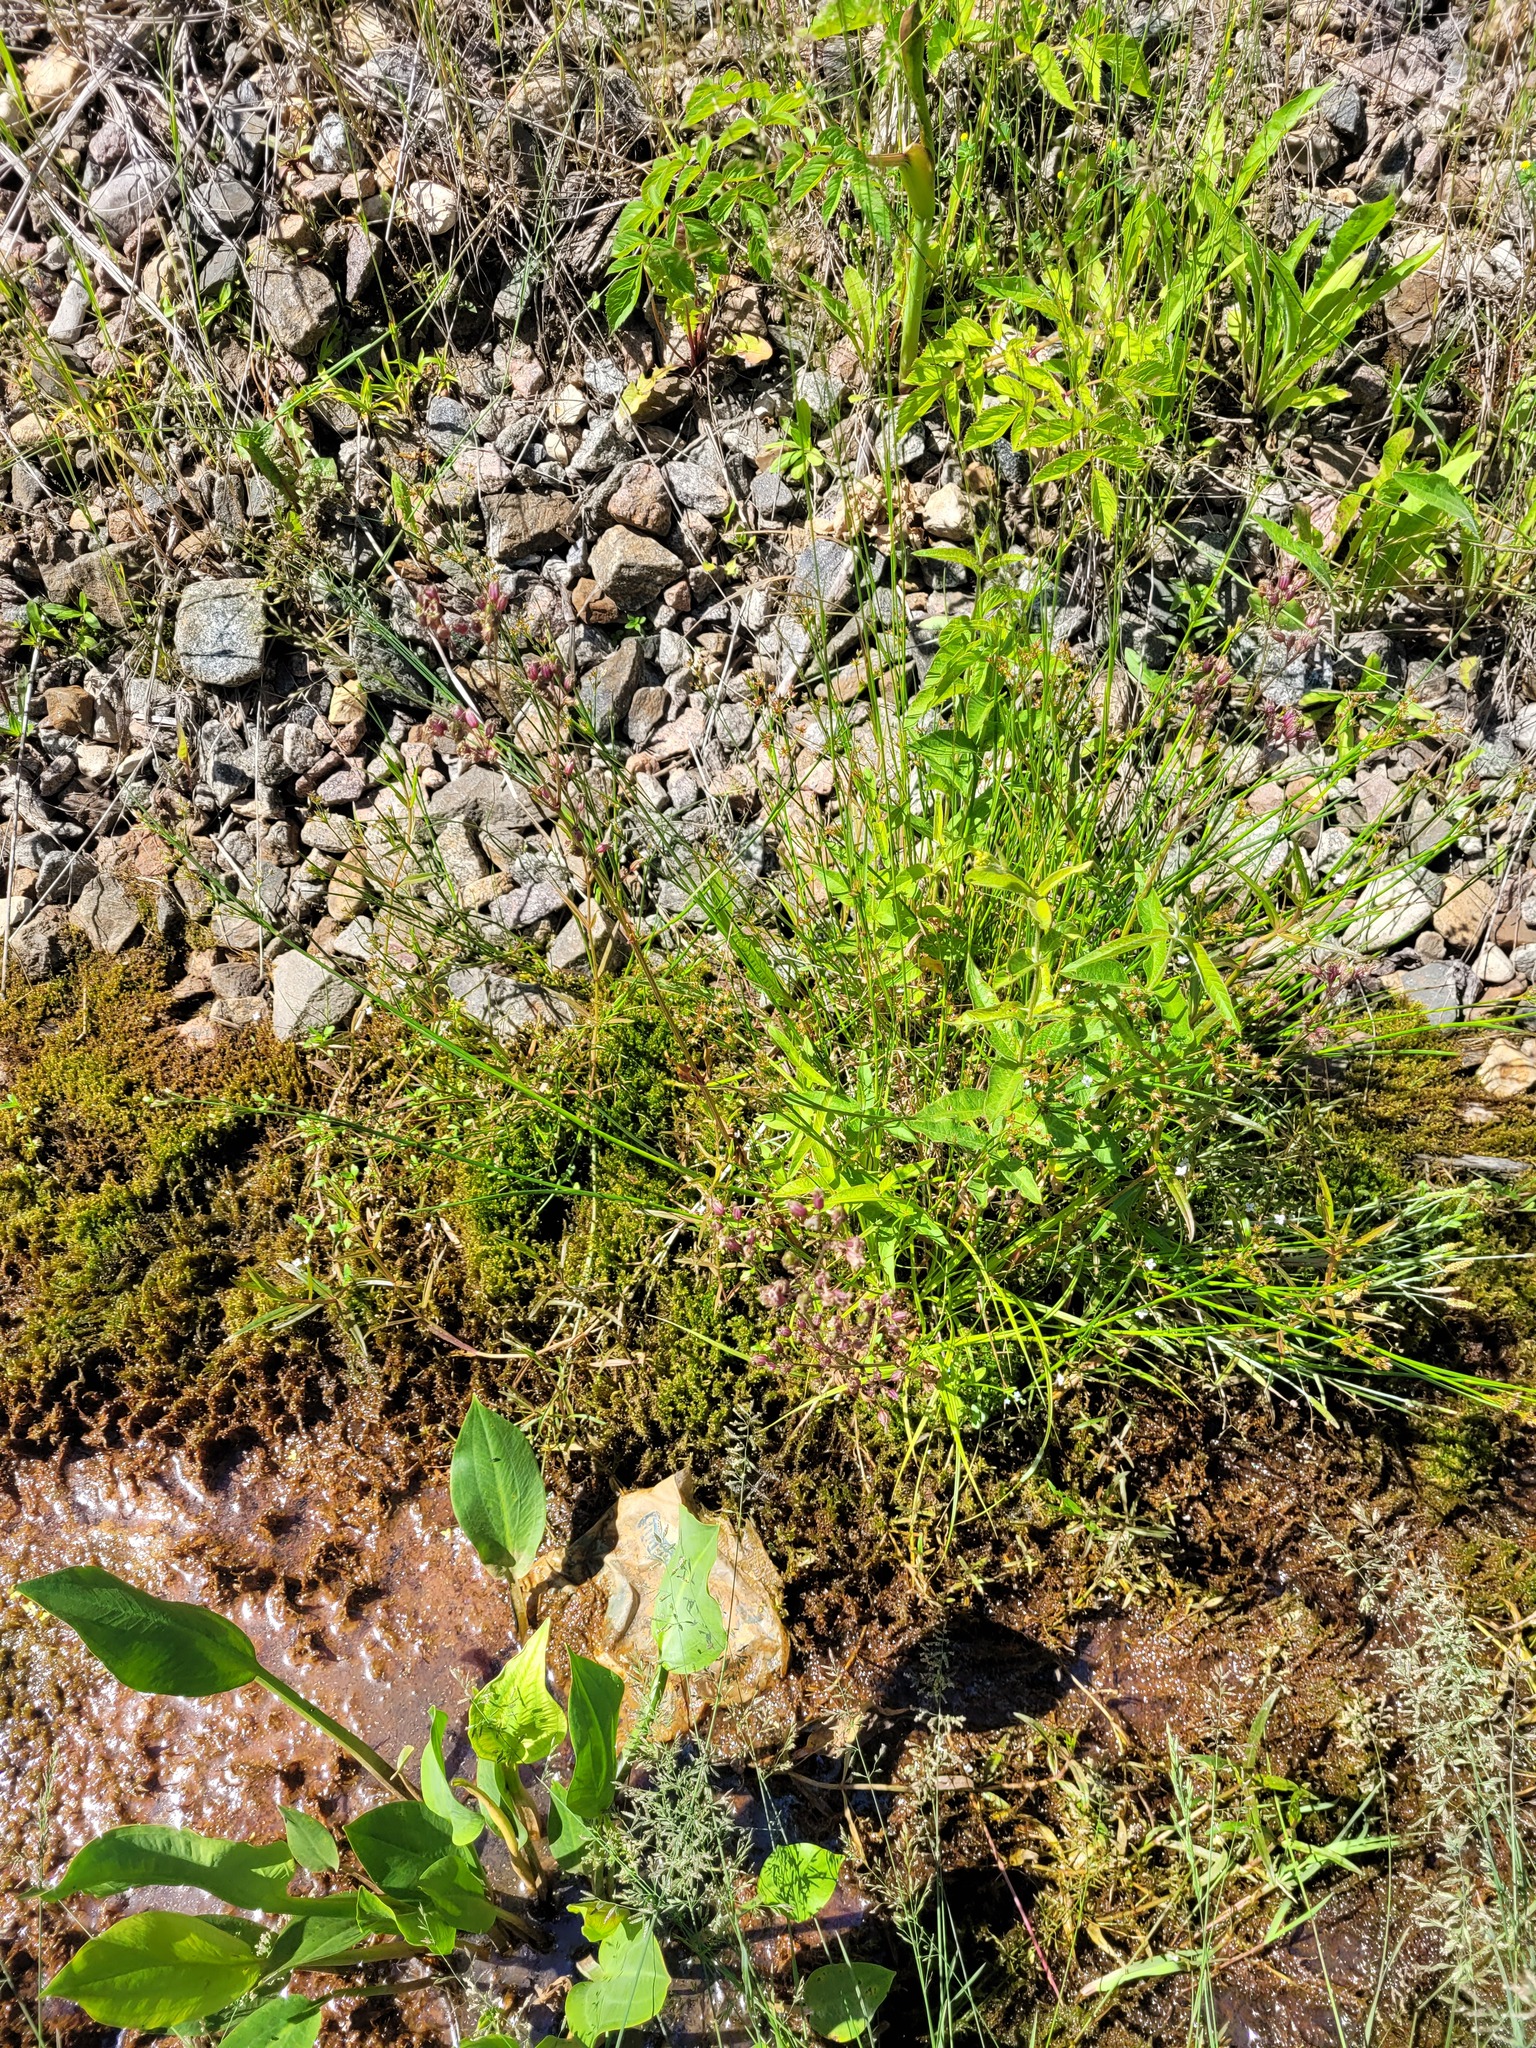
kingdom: Plantae
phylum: Tracheophyta
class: Magnoliopsida
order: Caryophyllales
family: Caryophyllaceae
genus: Silene
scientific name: Silene flos-cuculi
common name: Ragged-robin
